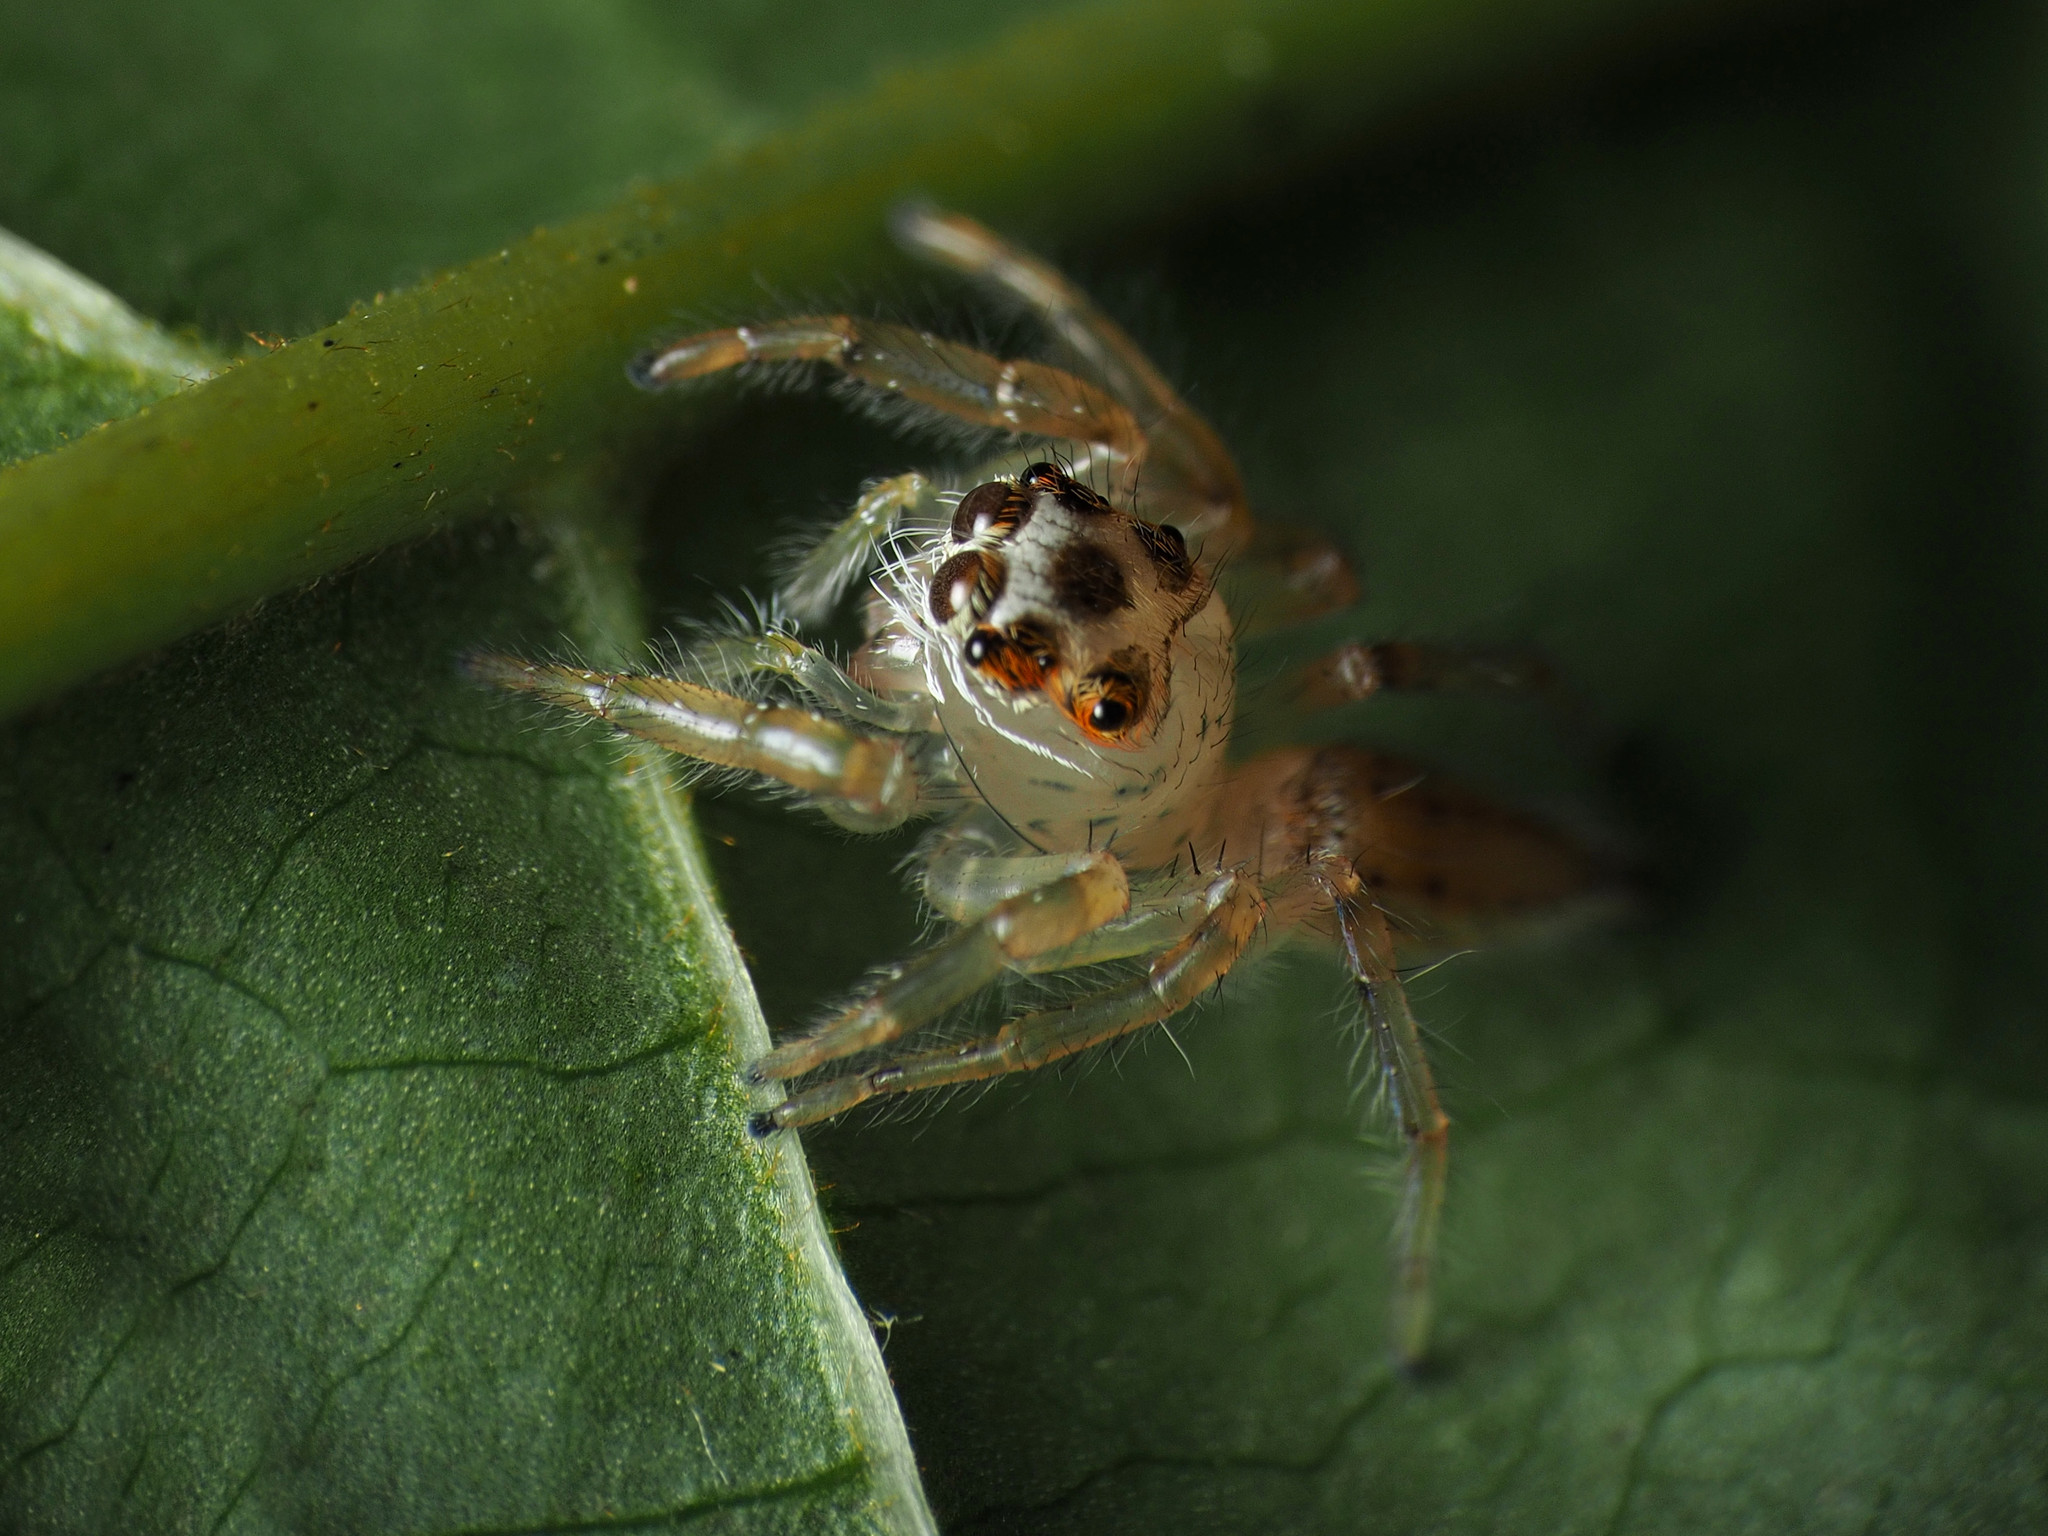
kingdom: Animalia
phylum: Arthropoda
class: Arachnida
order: Araneae
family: Salticidae
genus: Colonus
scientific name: Colonus sylvanus
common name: Jumping spiders
